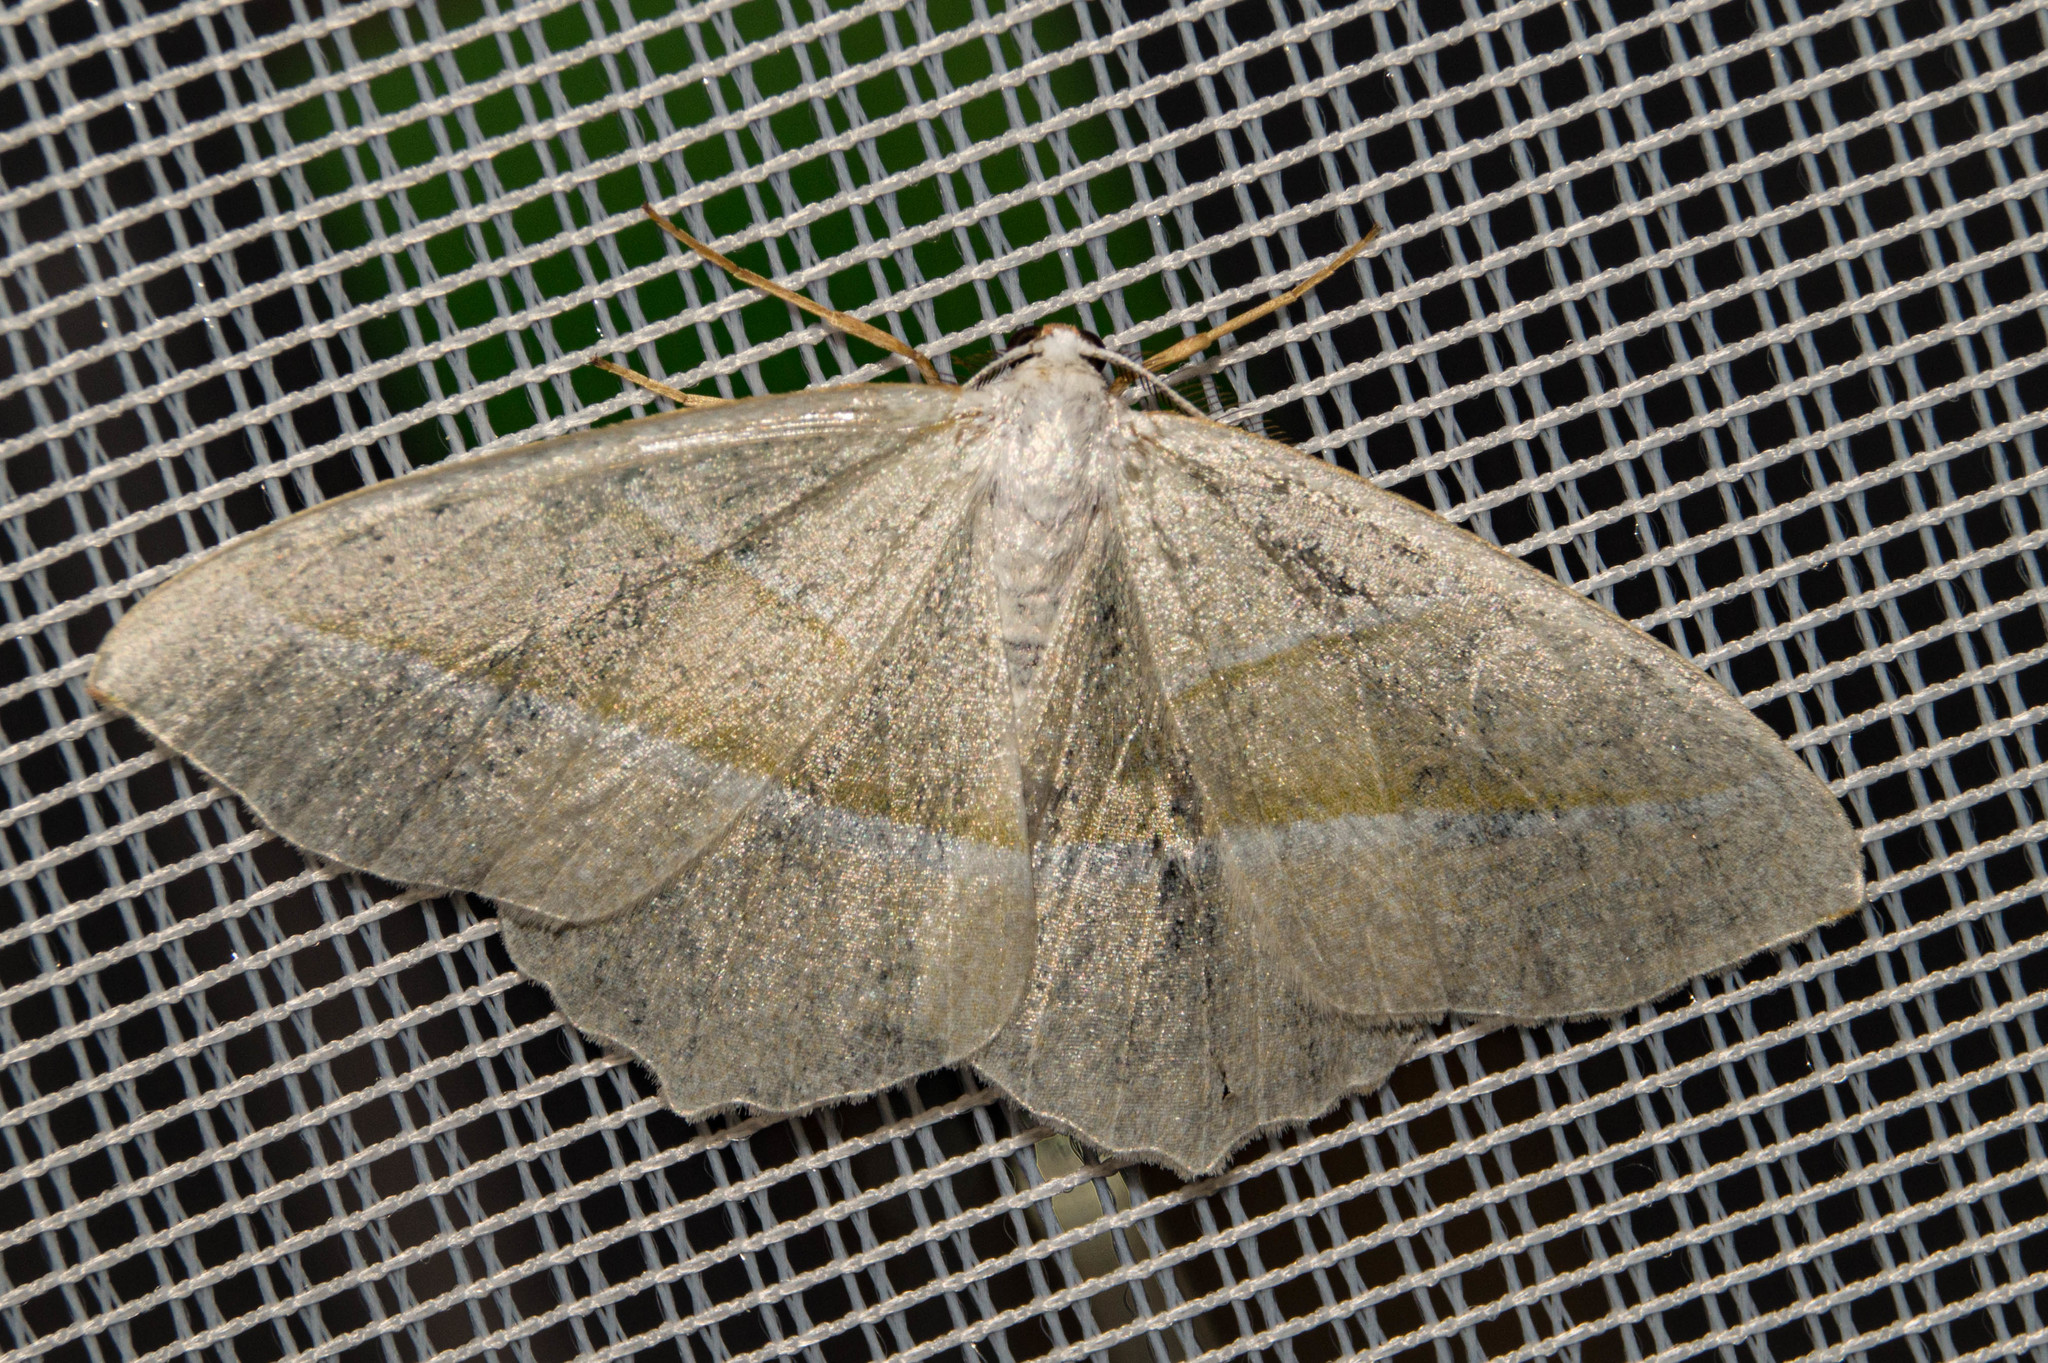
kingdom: Animalia
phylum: Arthropoda
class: Insecta
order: Lepidoptera
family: Geometridae
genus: Campaea
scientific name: Campaea margaritaria
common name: Light emerald
